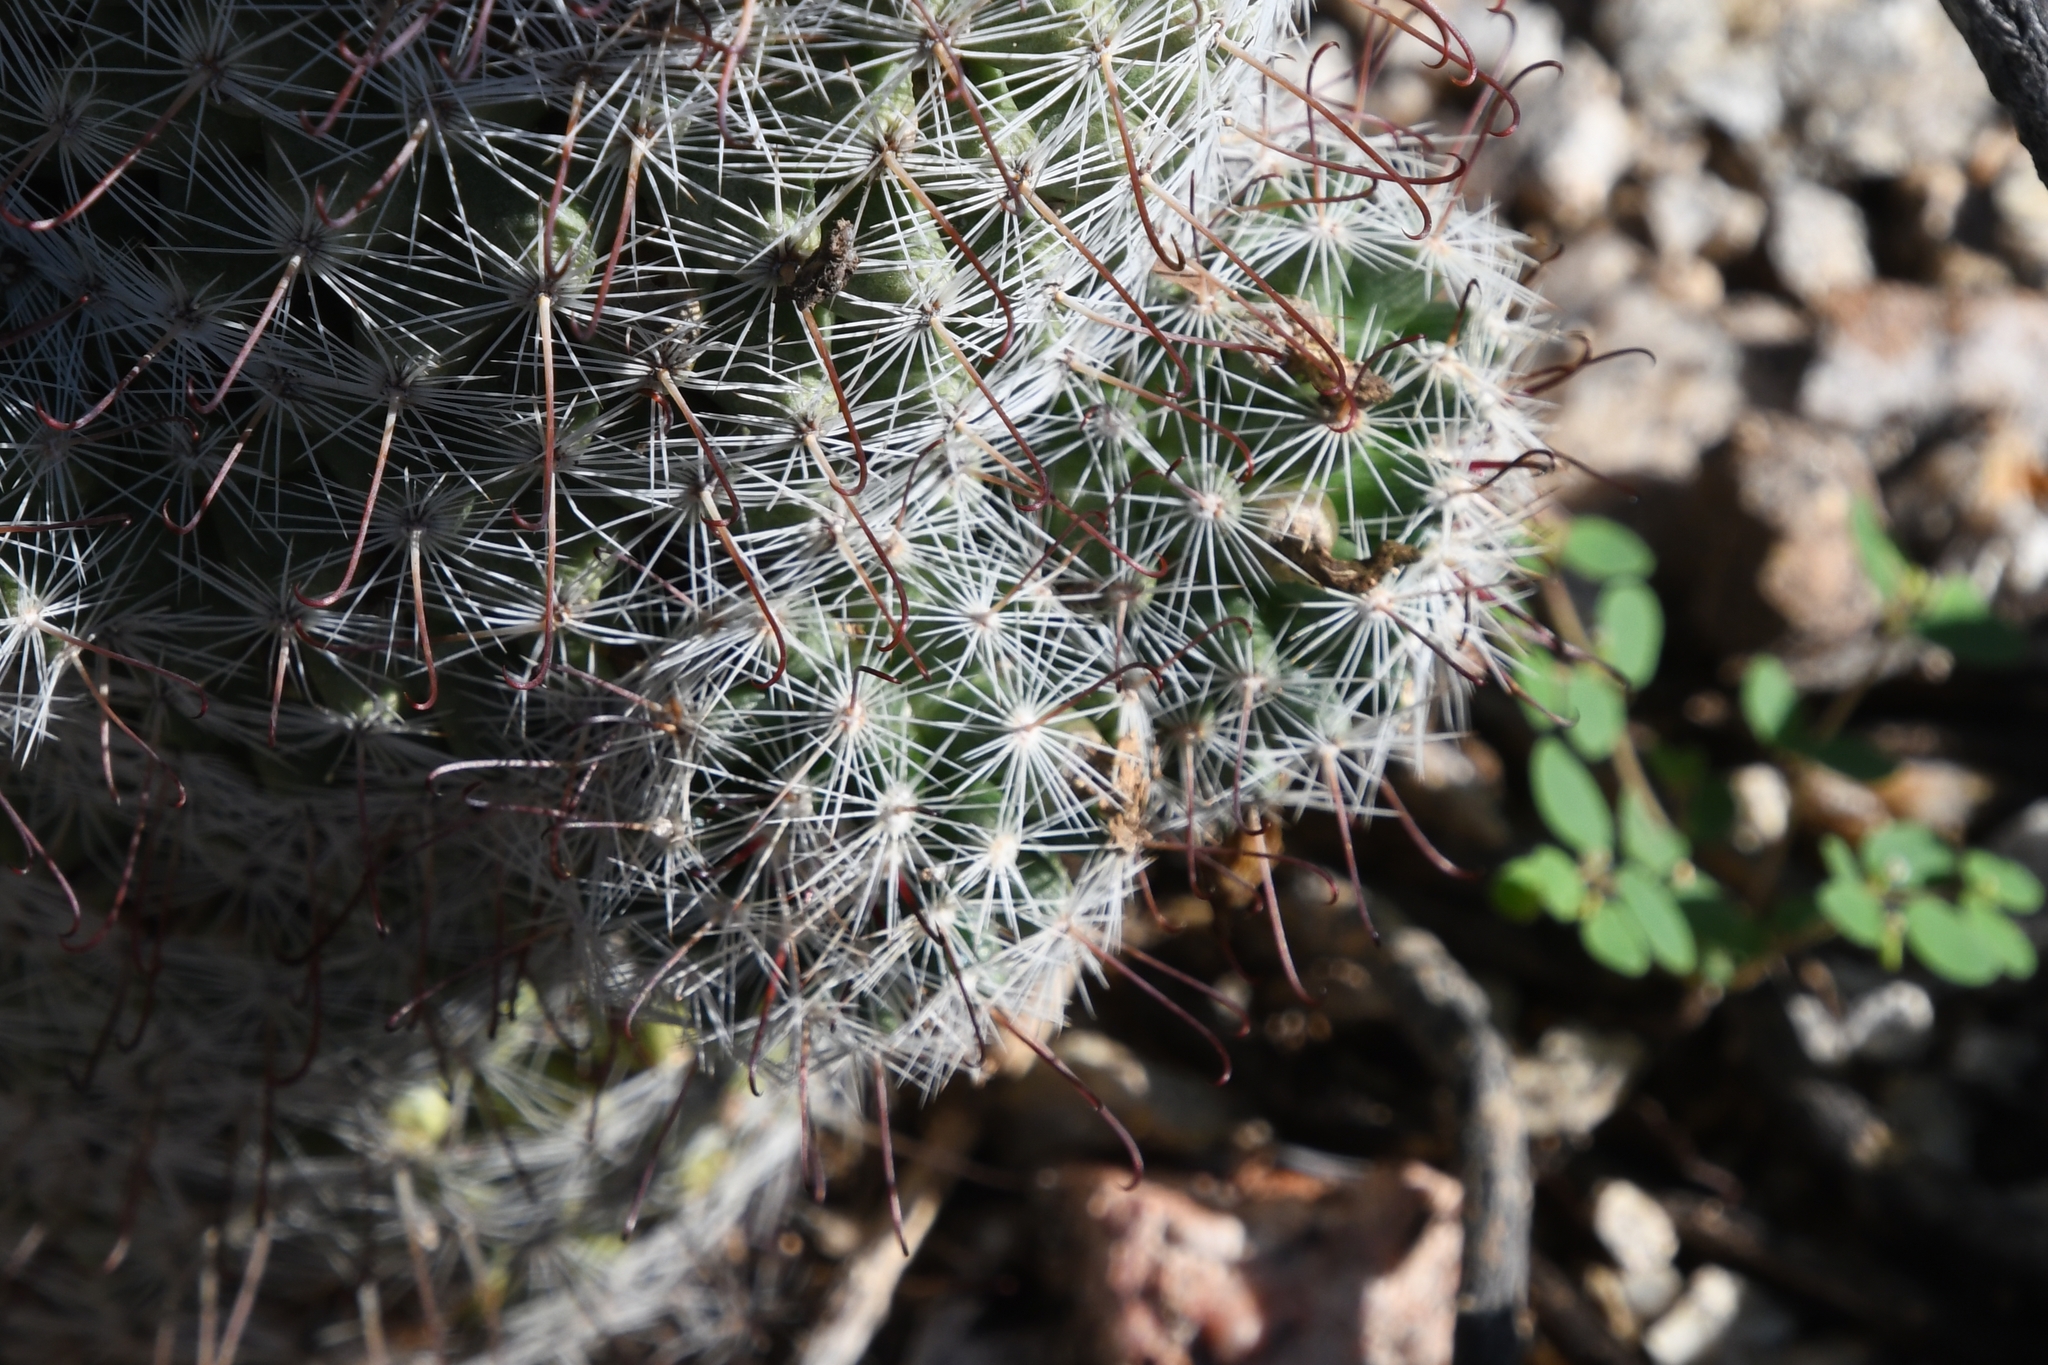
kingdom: Plantae
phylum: Tracheophyta
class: Magnoliopsida
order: Caryophyllales
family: Cactaceae
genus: Cochemiea
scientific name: Cochemiea grahamii
